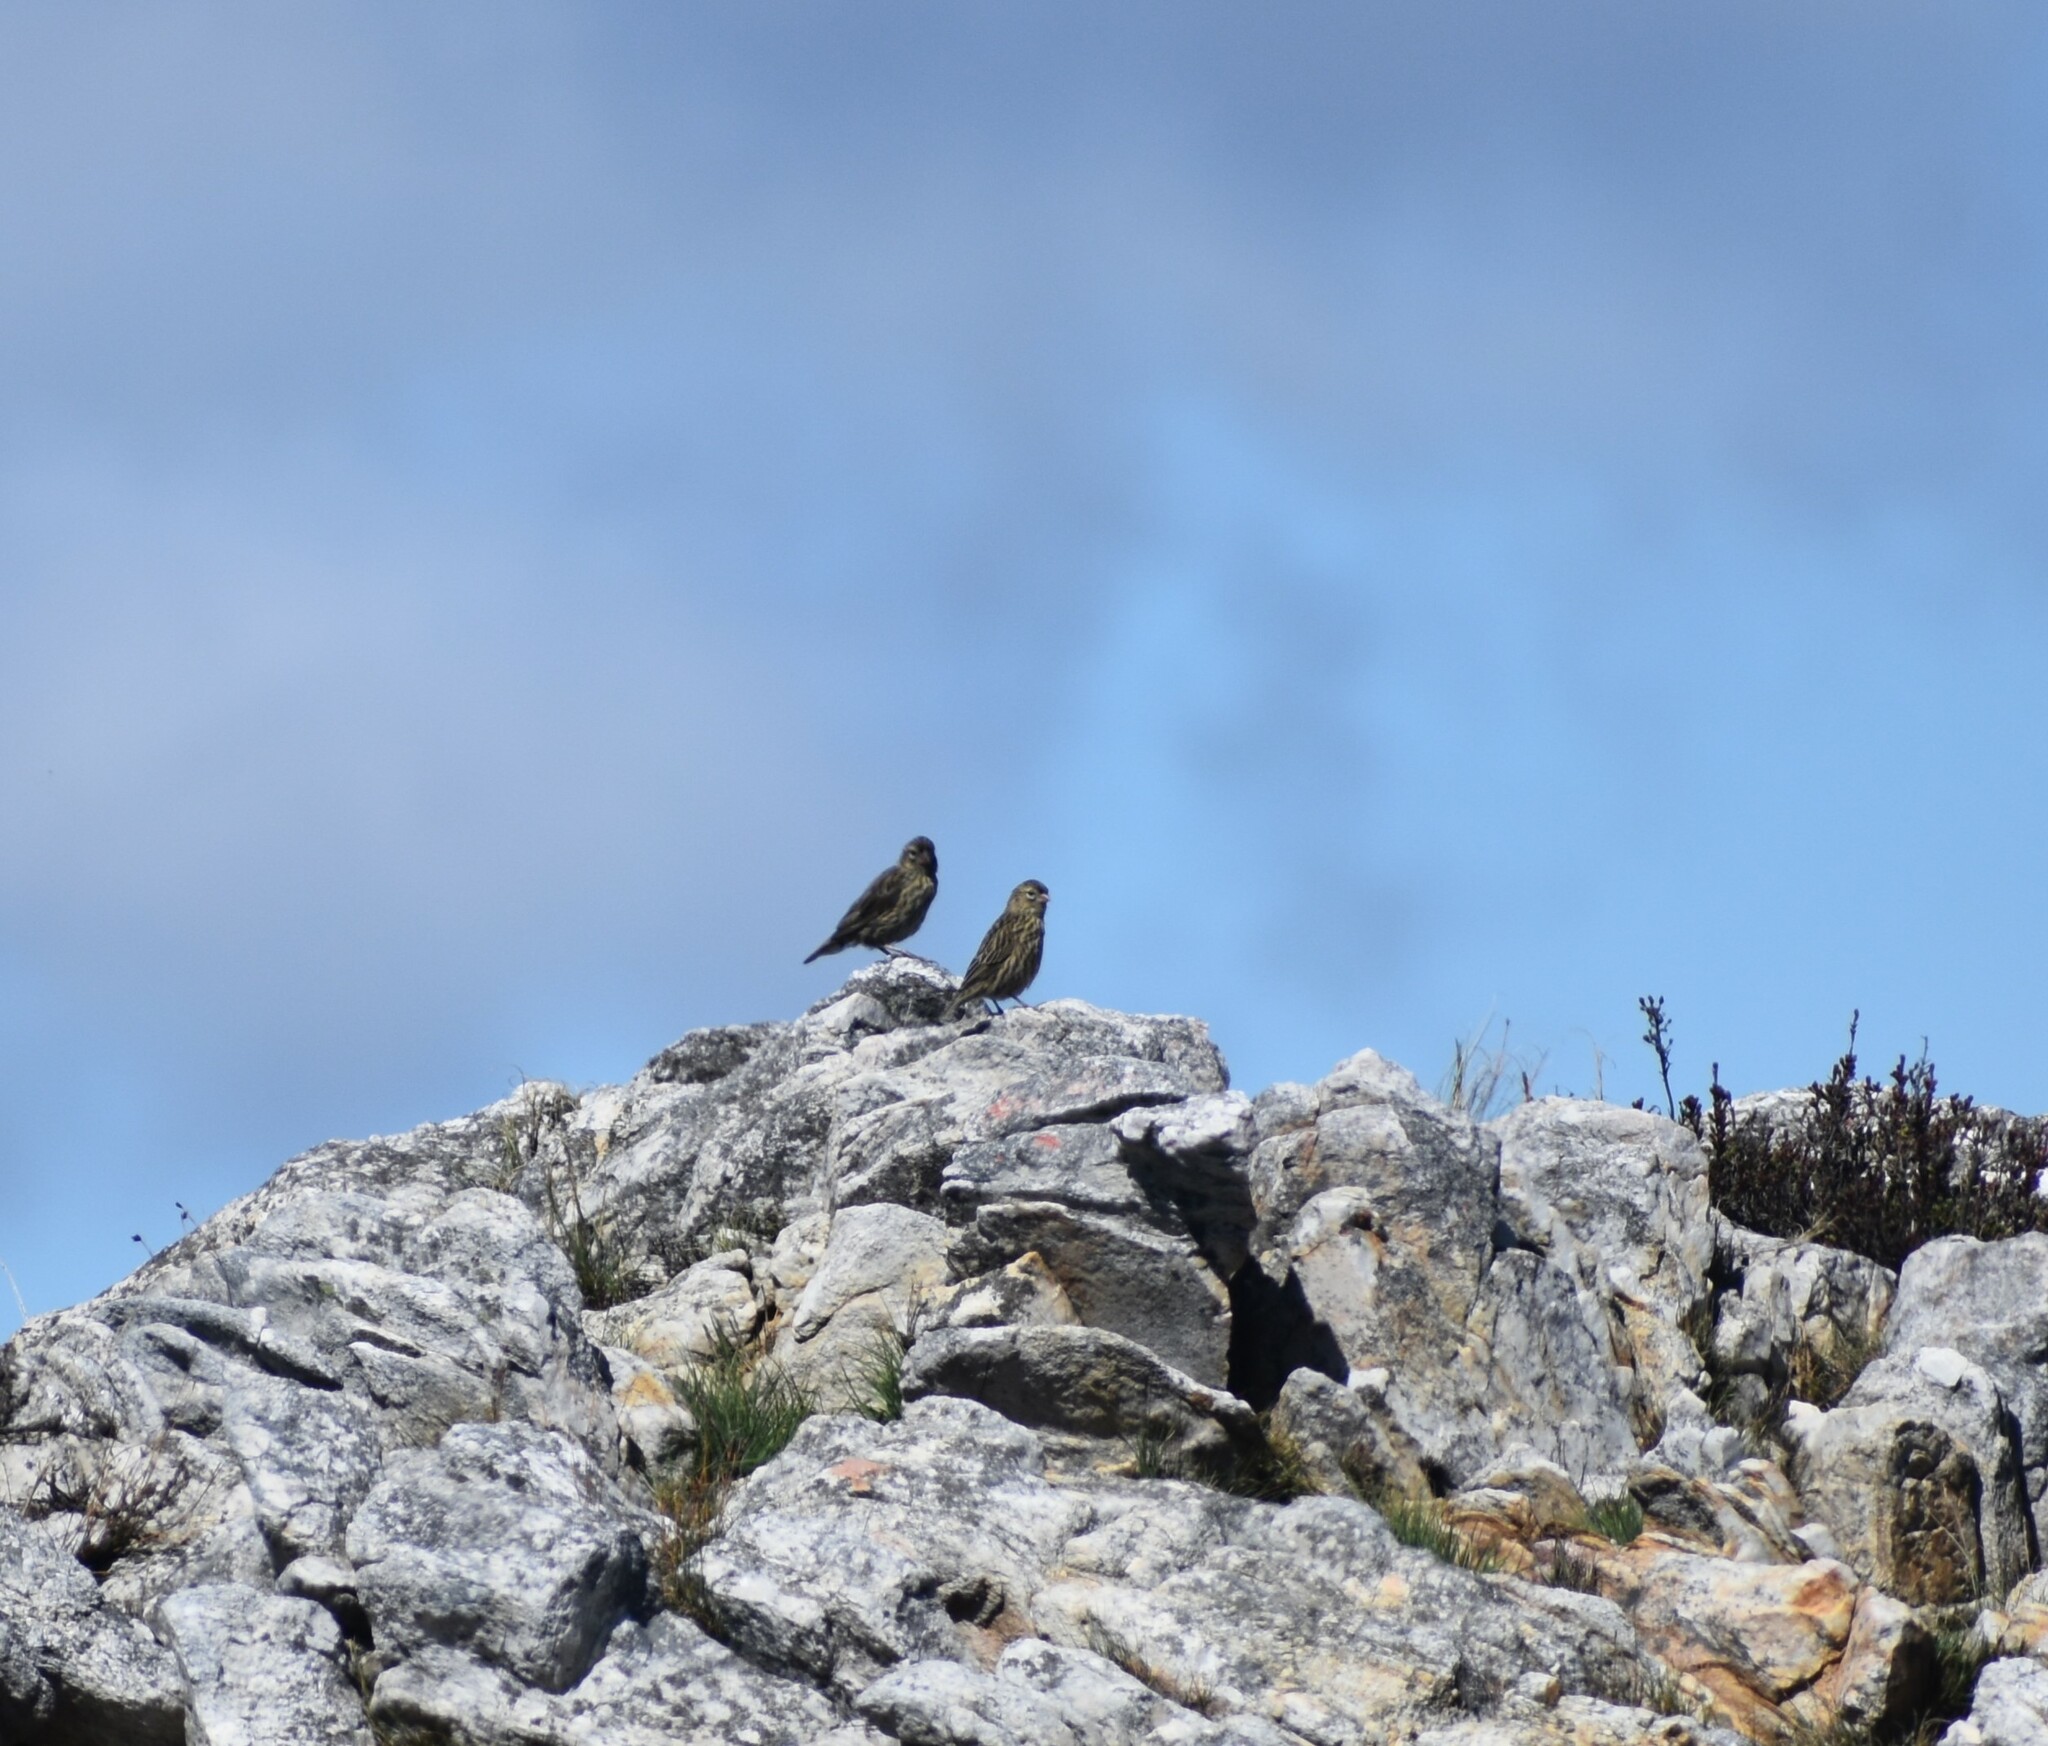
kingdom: Animalia
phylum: Chordata
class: Aves
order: Passeriformes
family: Ploceidae
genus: Euplectes
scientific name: Euplectes capensis
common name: Yellow bishop
